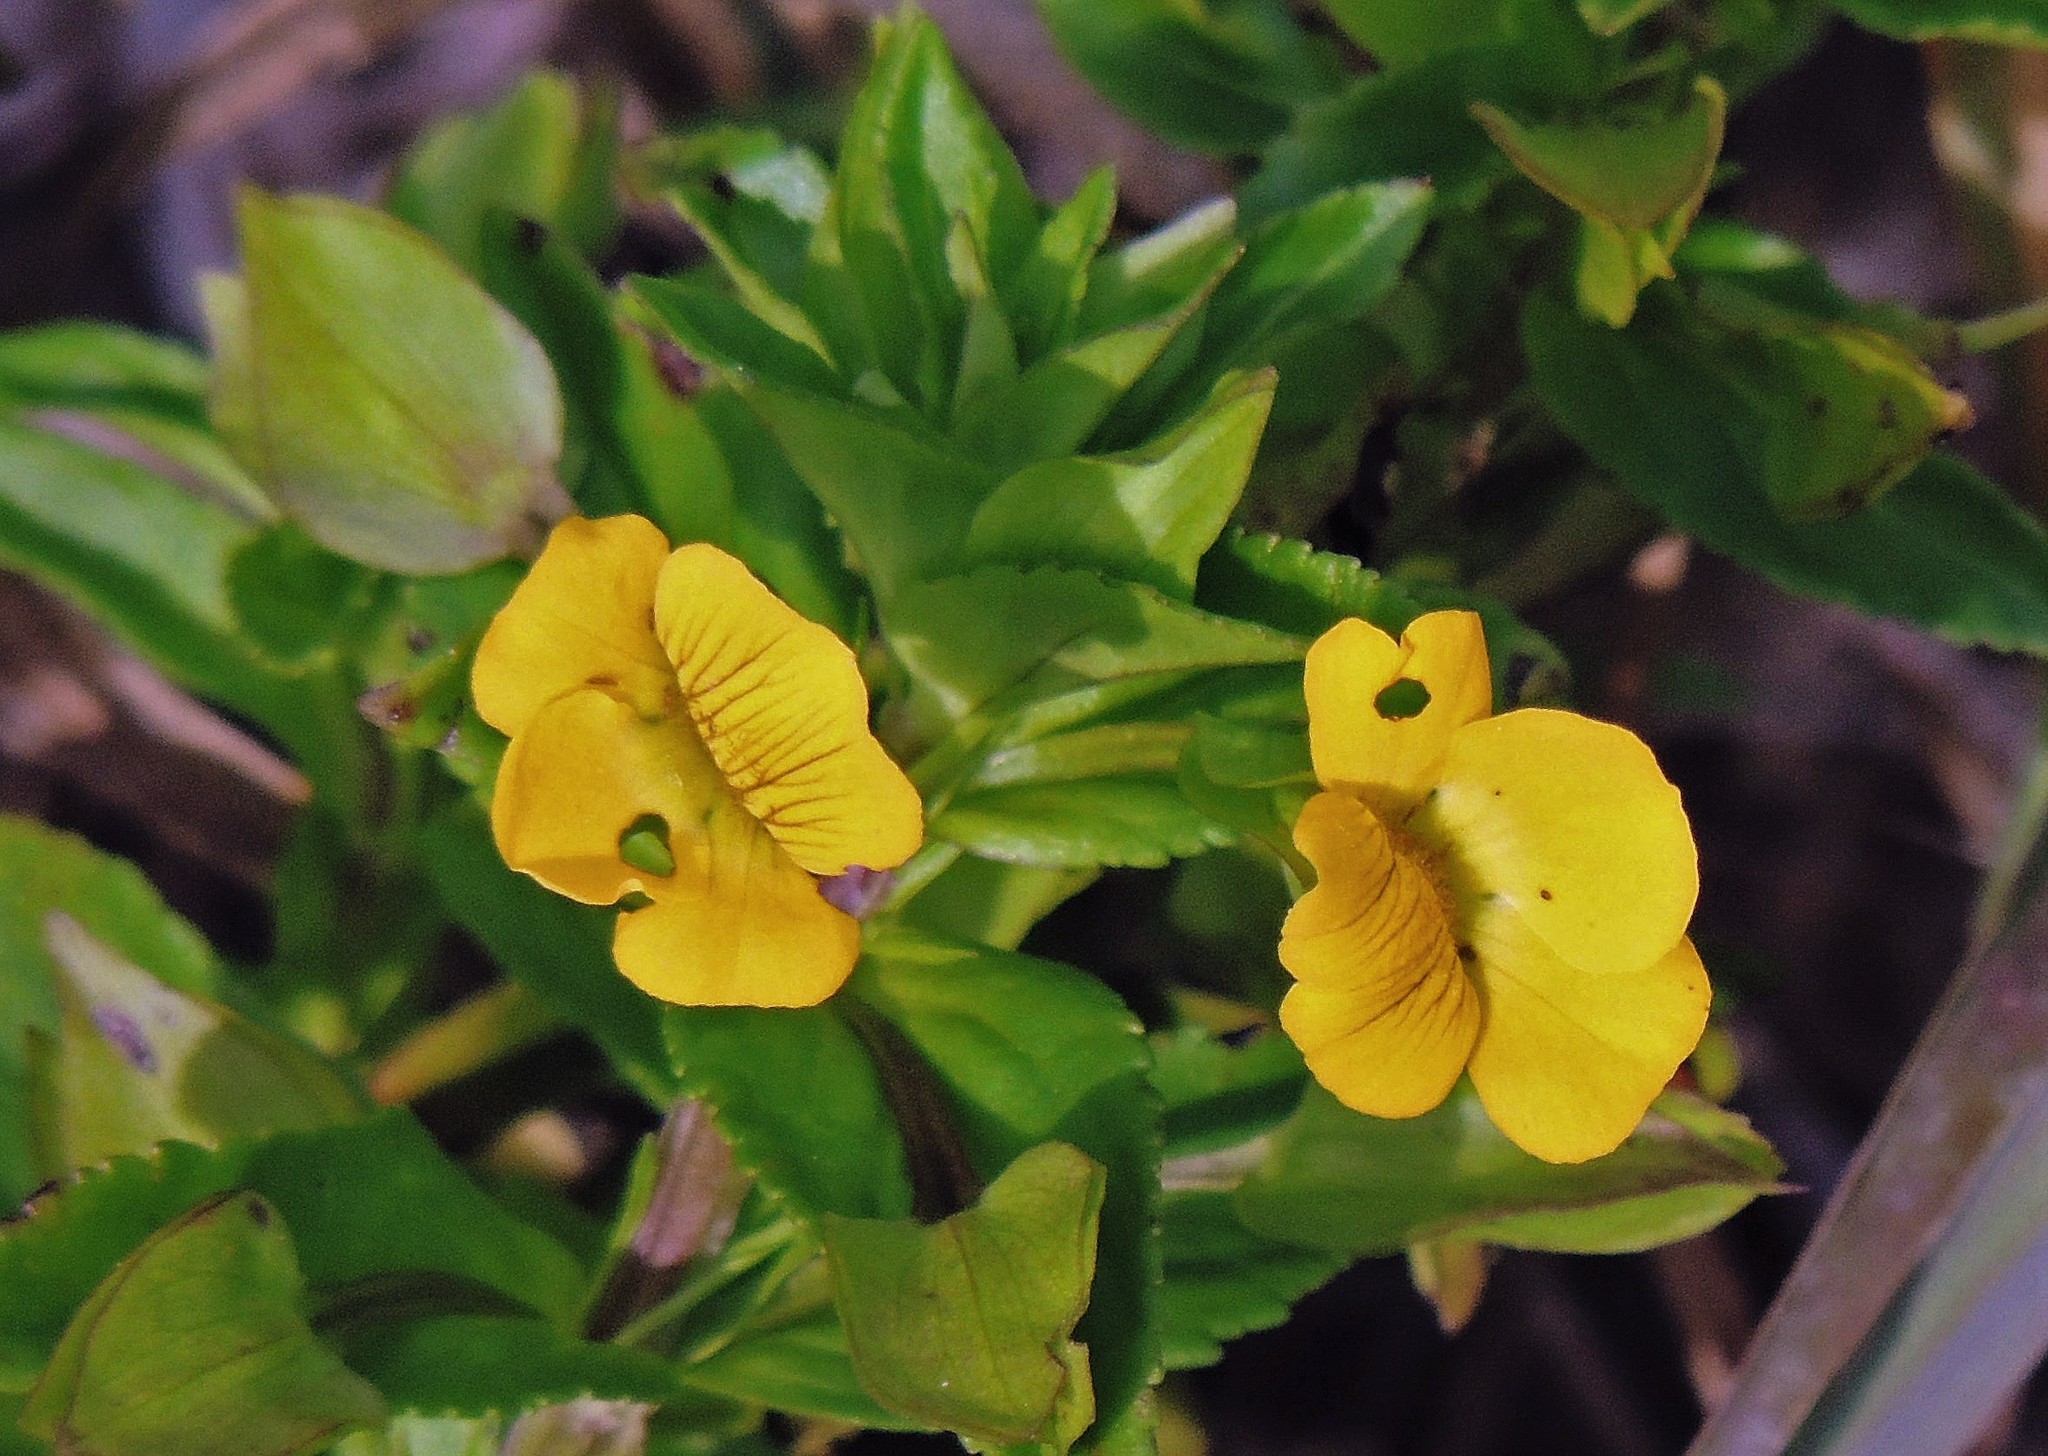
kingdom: Plantae
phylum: Tracheophyta
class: Magnoliopsida
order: Lamiales
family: Plantaginaceae
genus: Mecardonia
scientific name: Mecardonia grandiflora
